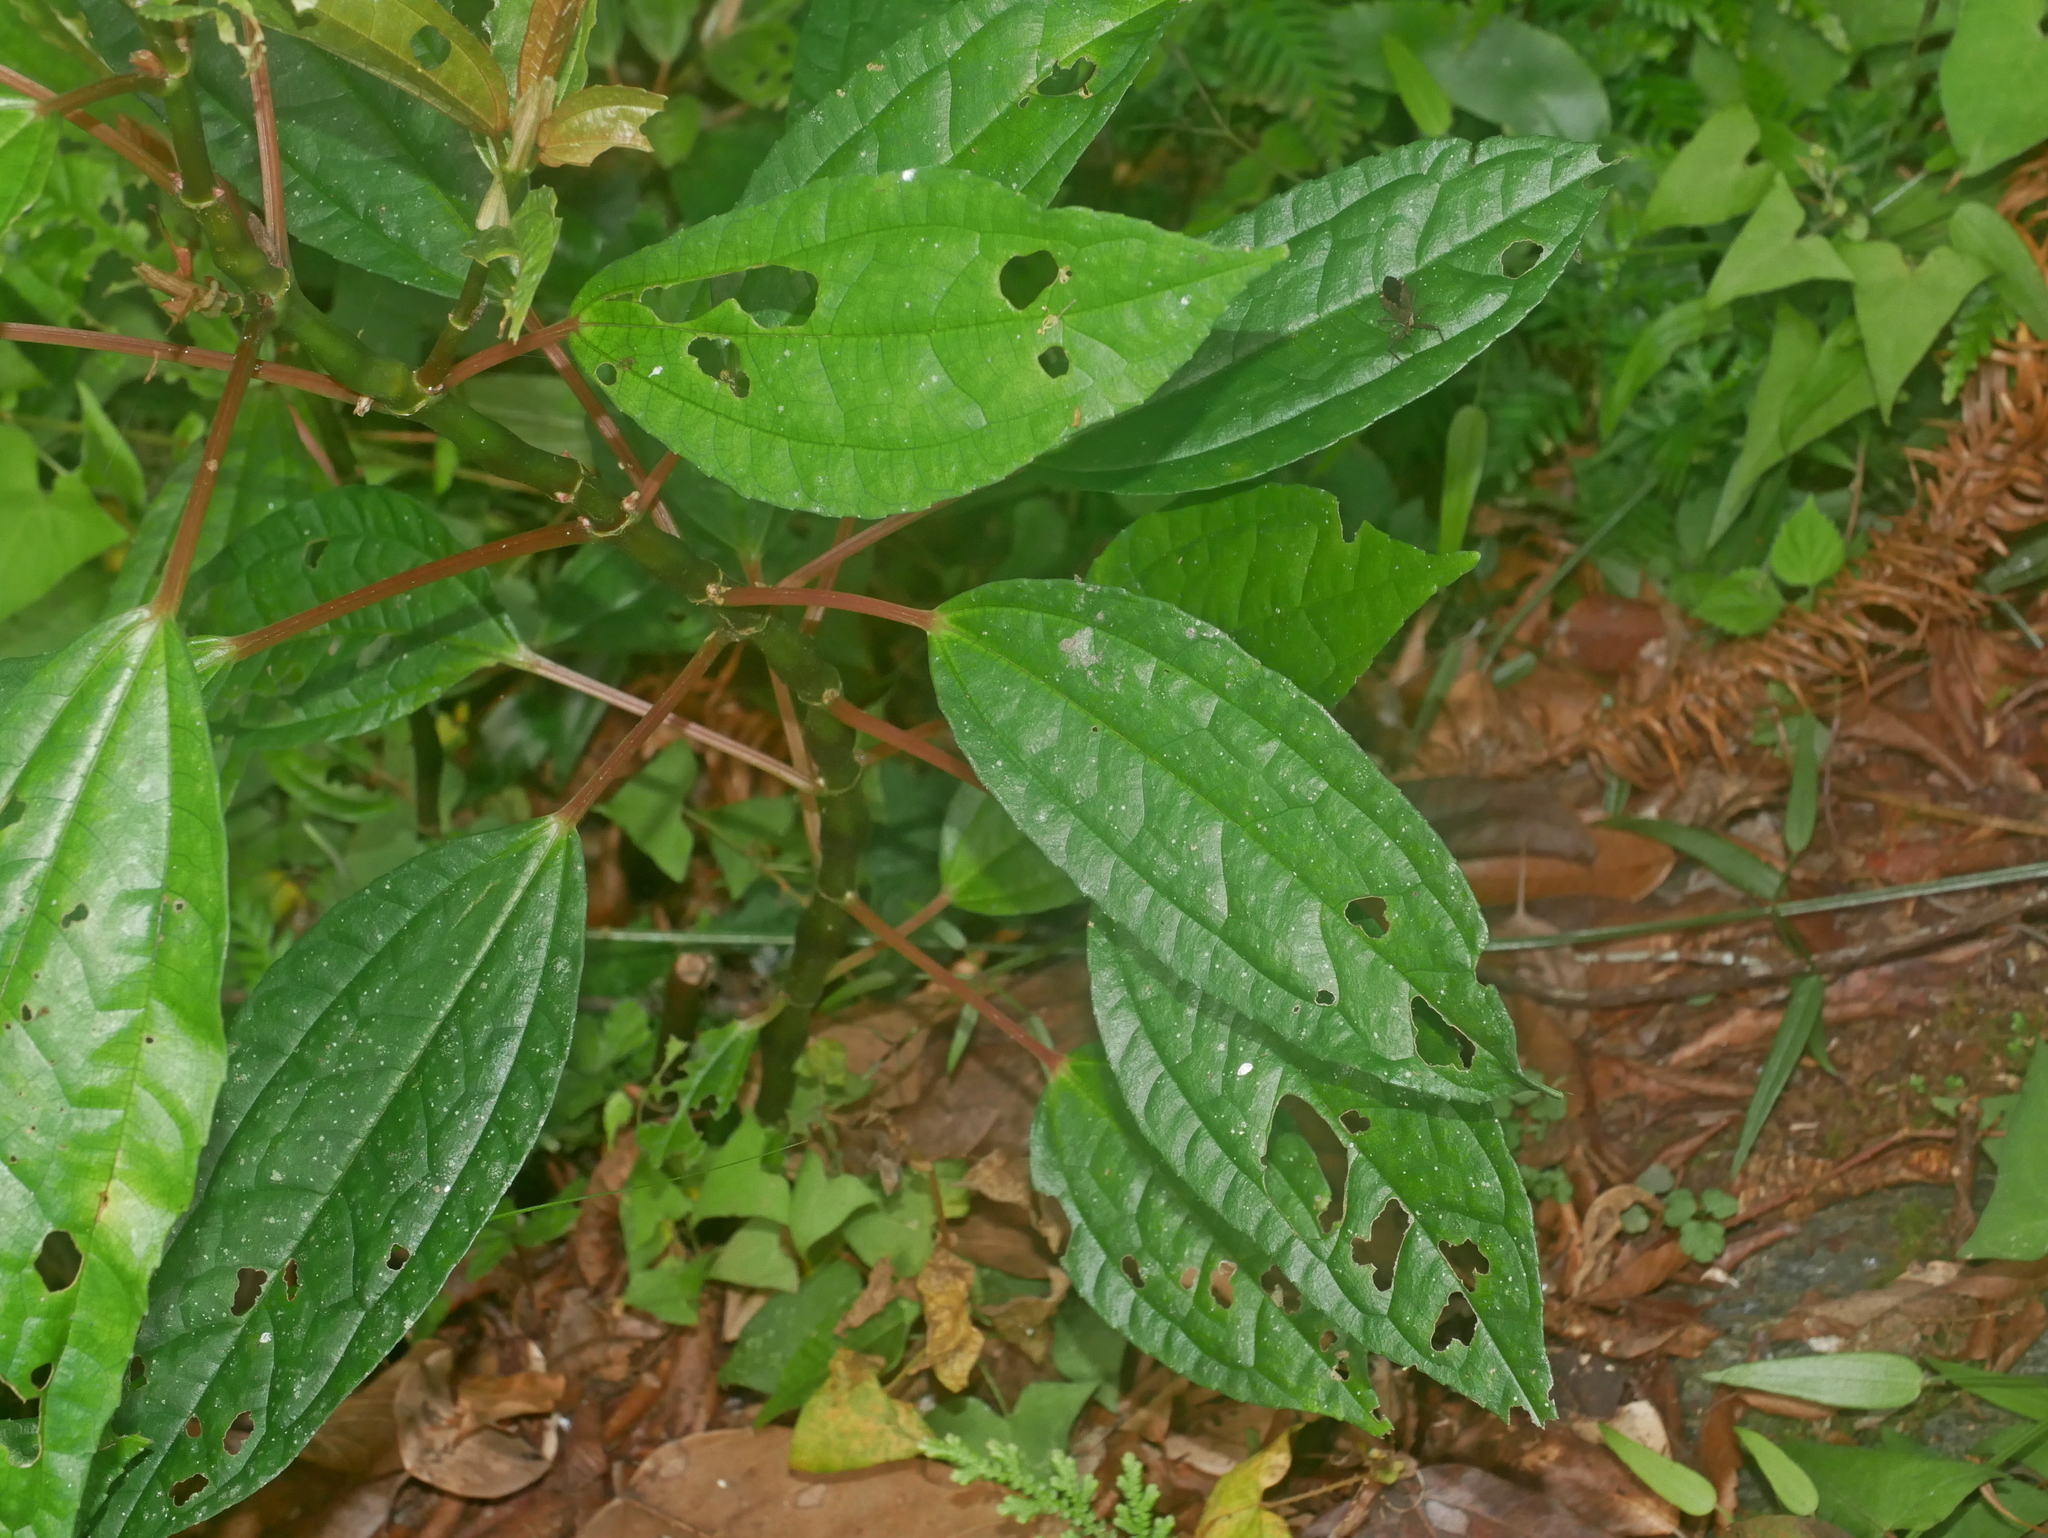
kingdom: Plantae
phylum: Tracheophyta
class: Magnoliopsida
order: Rosales
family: Urticaceae
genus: Pilea
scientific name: Pilea funkikensis
